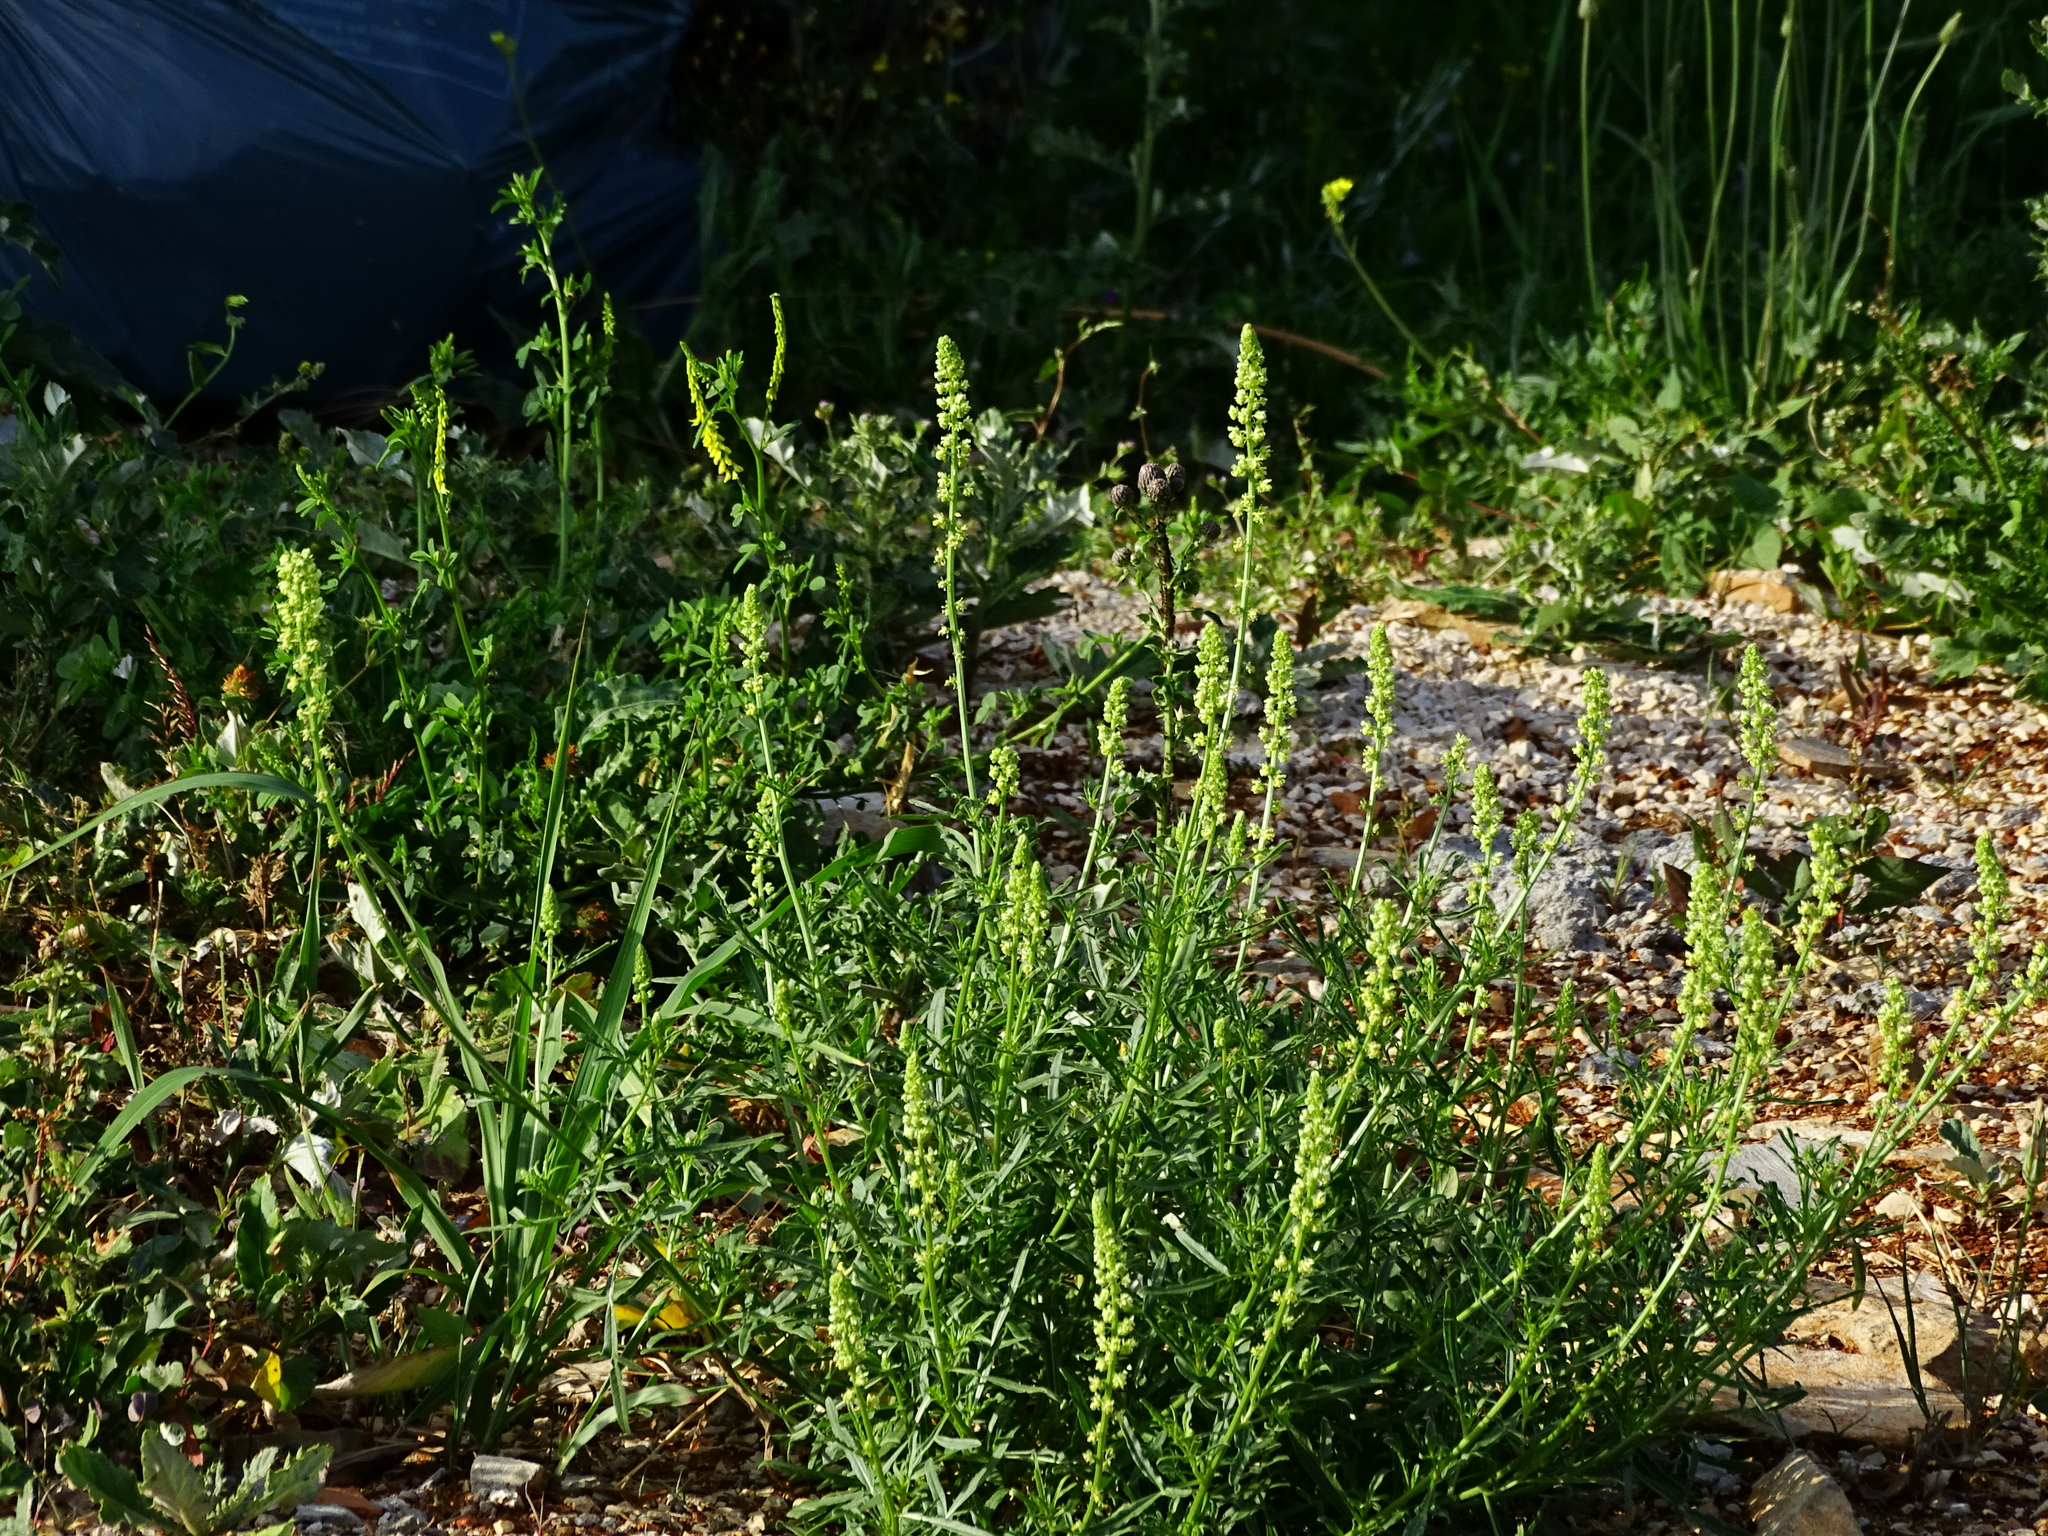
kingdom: Plantae
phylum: Tracheophyta
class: Magnoliopsida
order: Brassicales
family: Resedaceae
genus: Reseda
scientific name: Reseda lutea
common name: Wild mignonette
